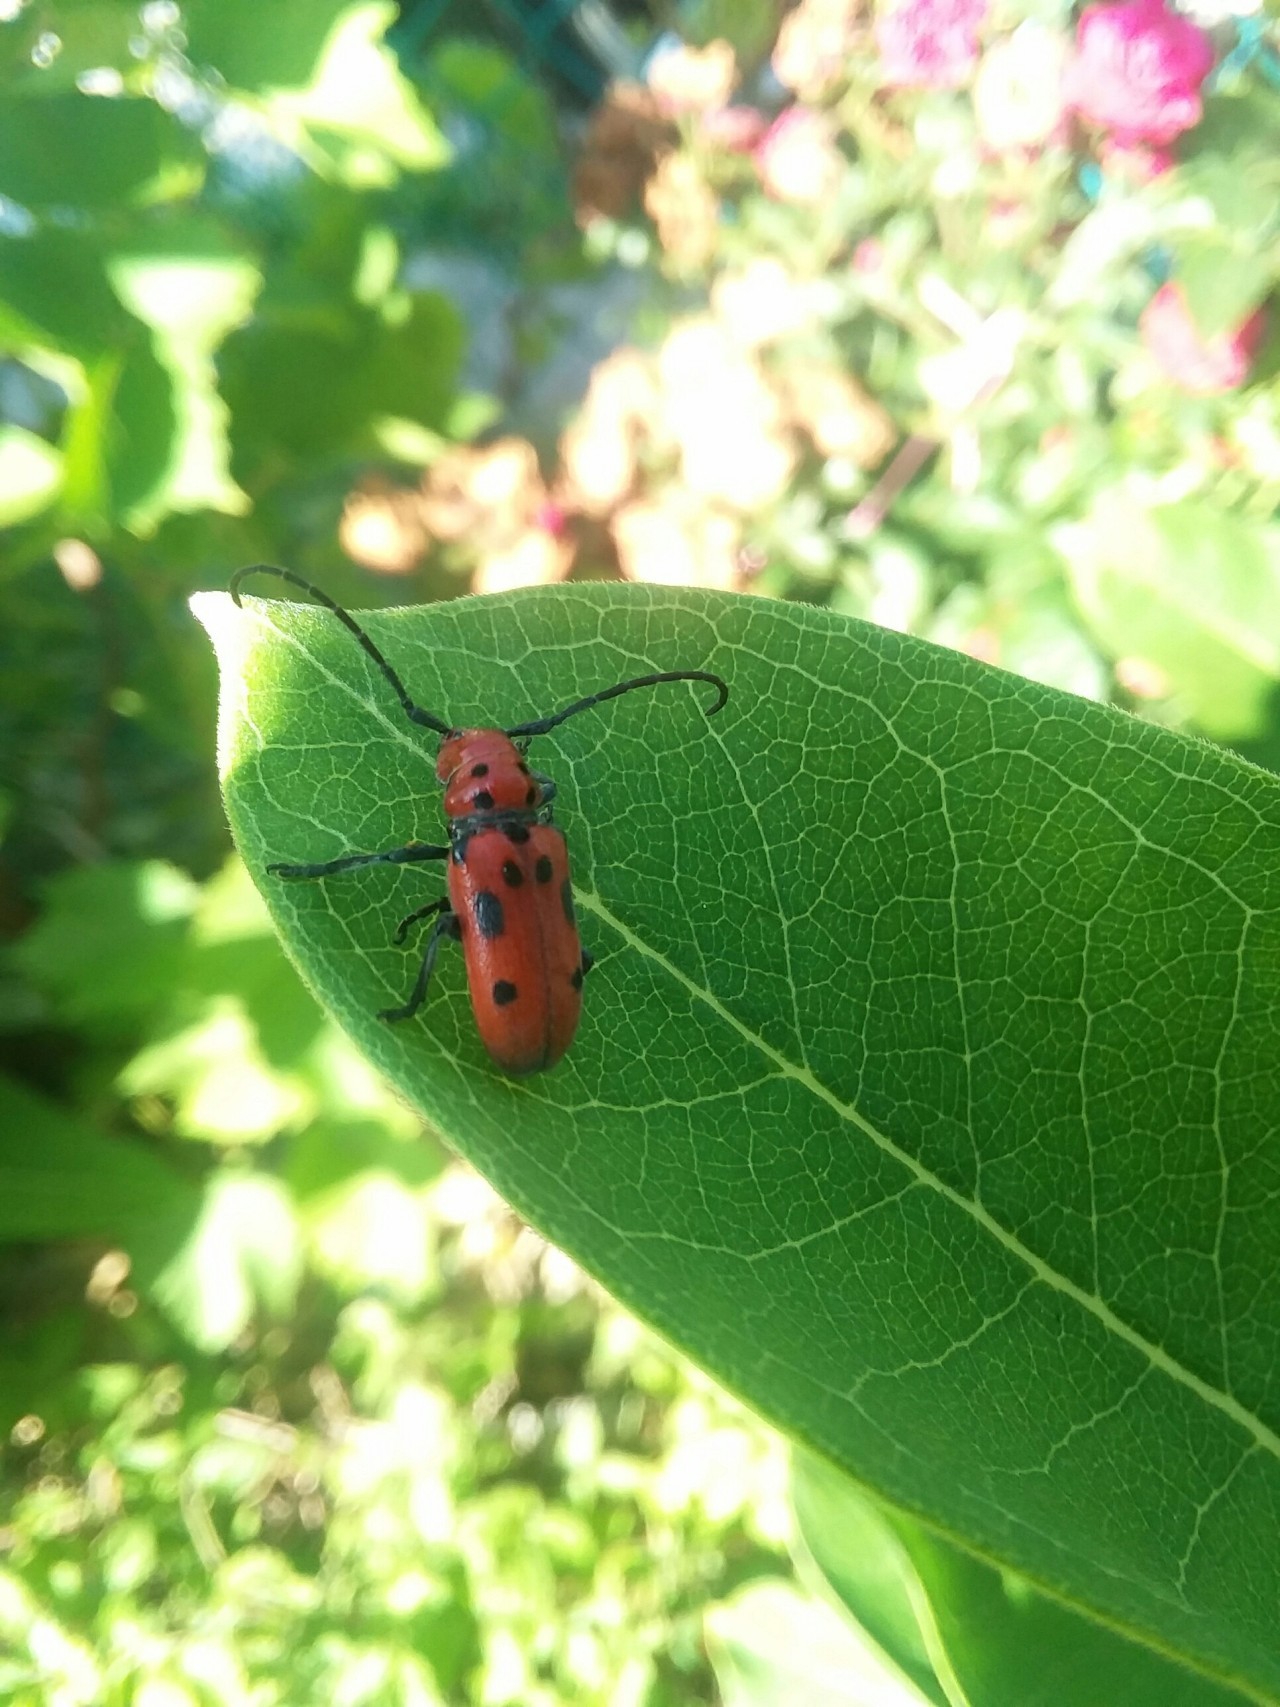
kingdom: Animalia
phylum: Arthropoda
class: Insecta
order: Coleoptera
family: Cerambycidae
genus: Tetraopes
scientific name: Tetraopes tetrophthalmus
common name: Red milkweed beetle
